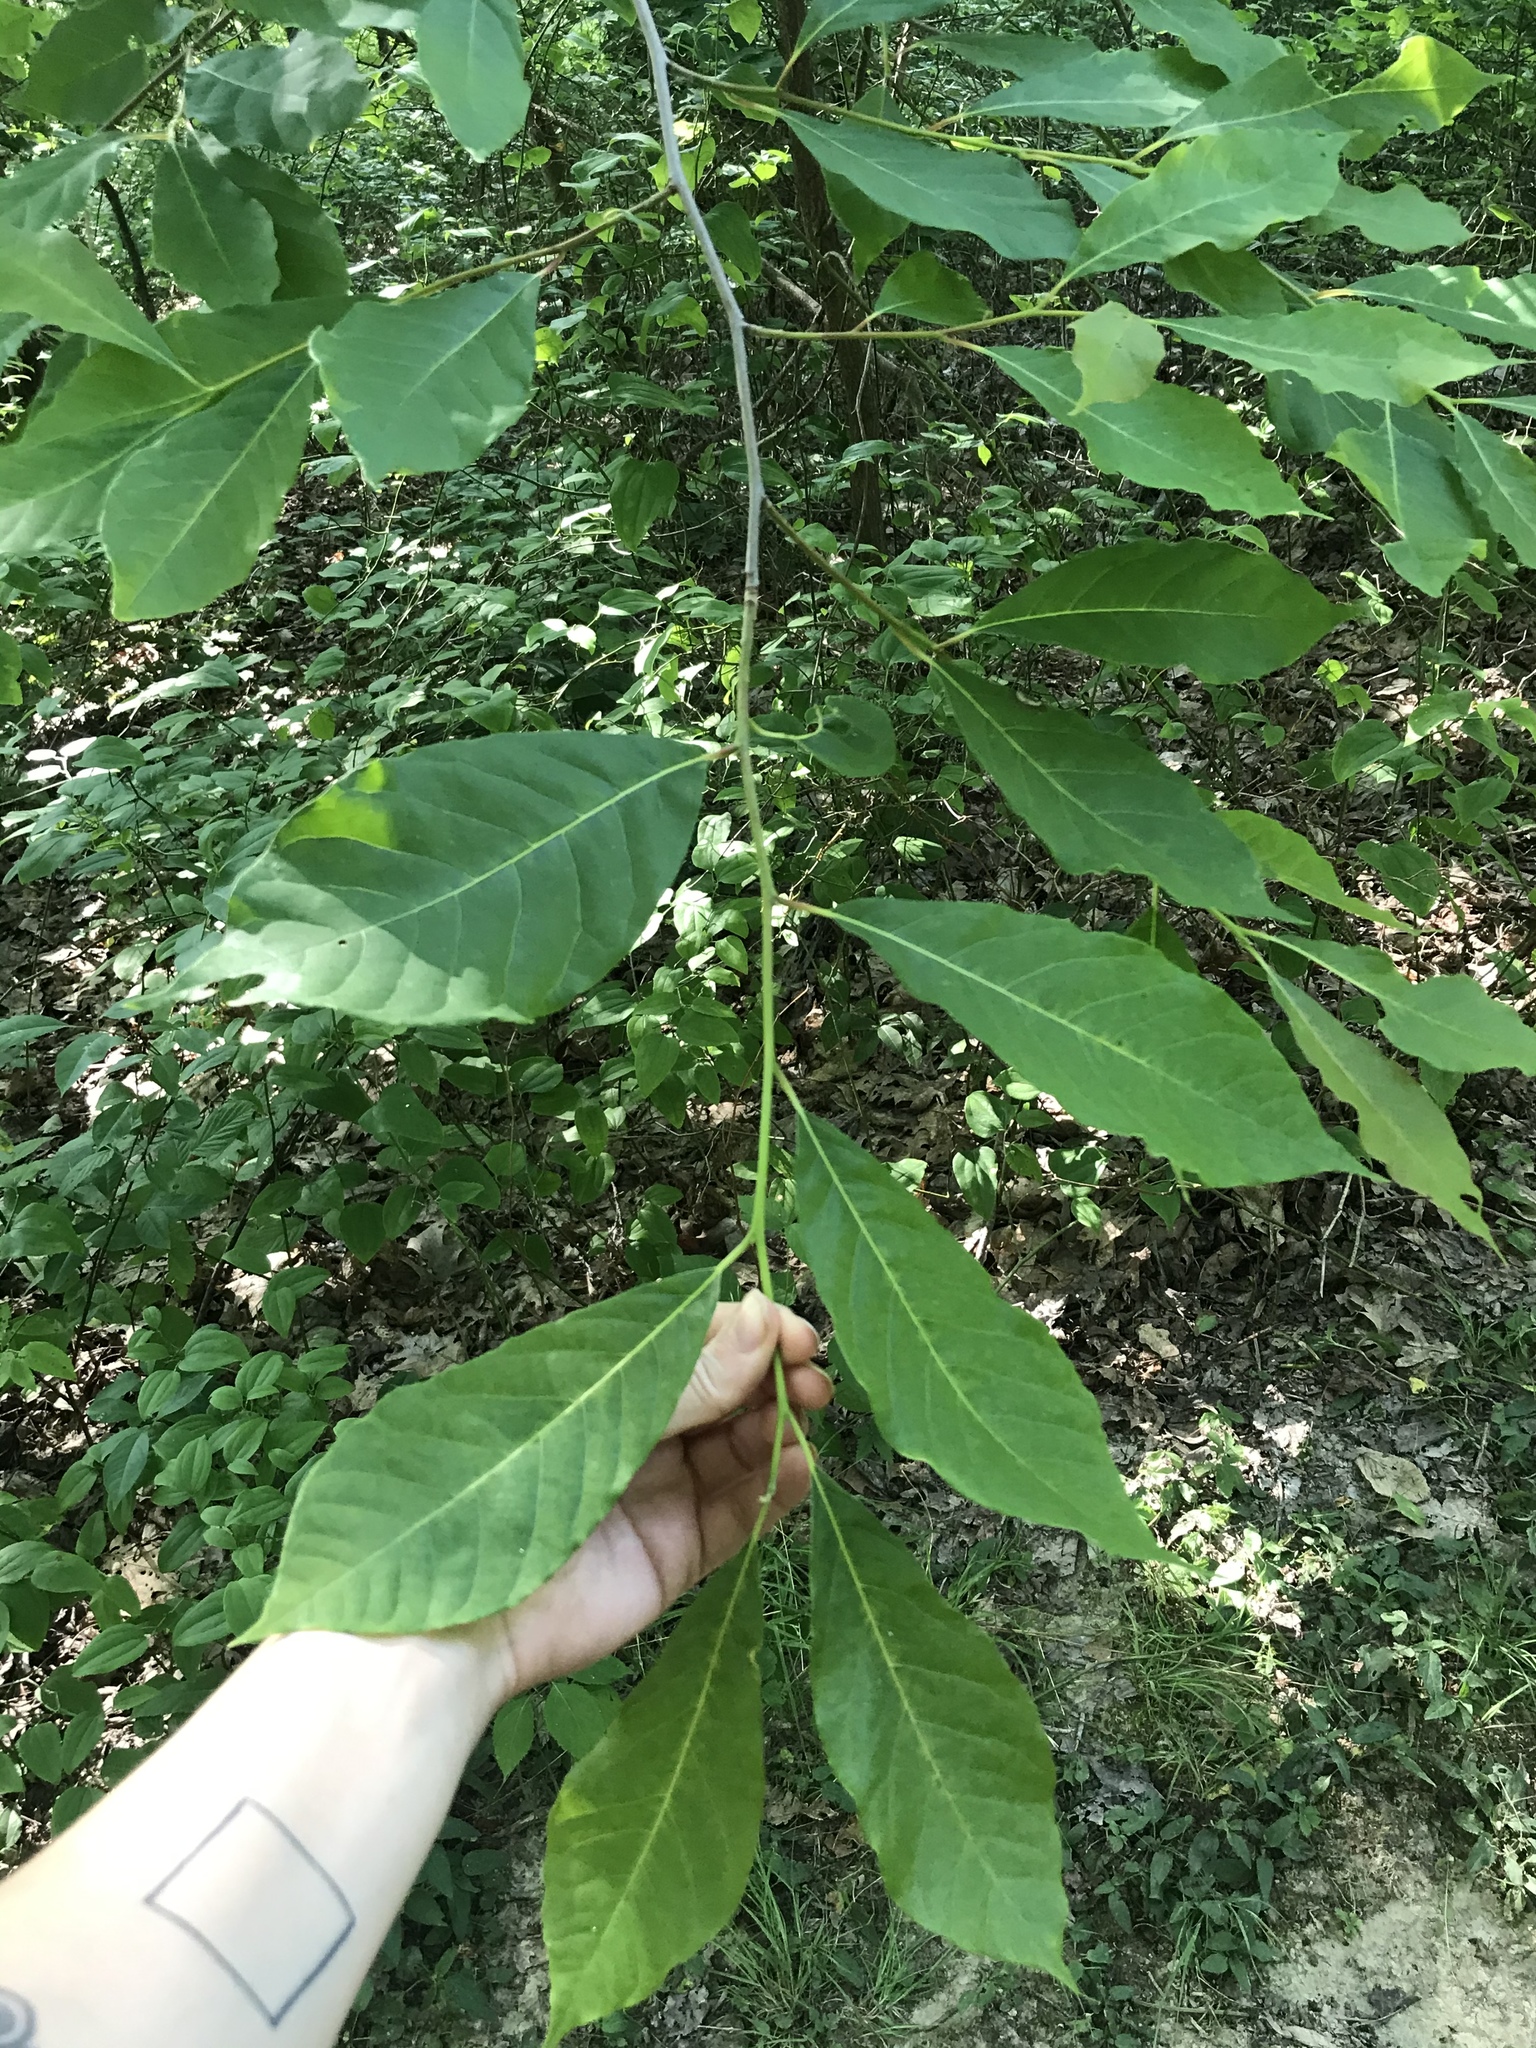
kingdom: Plantae
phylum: Tracheophyta
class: Magnoliopsida
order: Magnoliales
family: Annonaceae
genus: Asimina
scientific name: Asimina triloba
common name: Dog-banana
